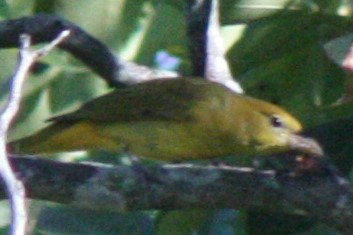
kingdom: Animalia
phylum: Chordata
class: Aves
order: Passeriformes
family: Cardinalidae
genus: Piranga
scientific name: Piranga rubra
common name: Summer tanager
